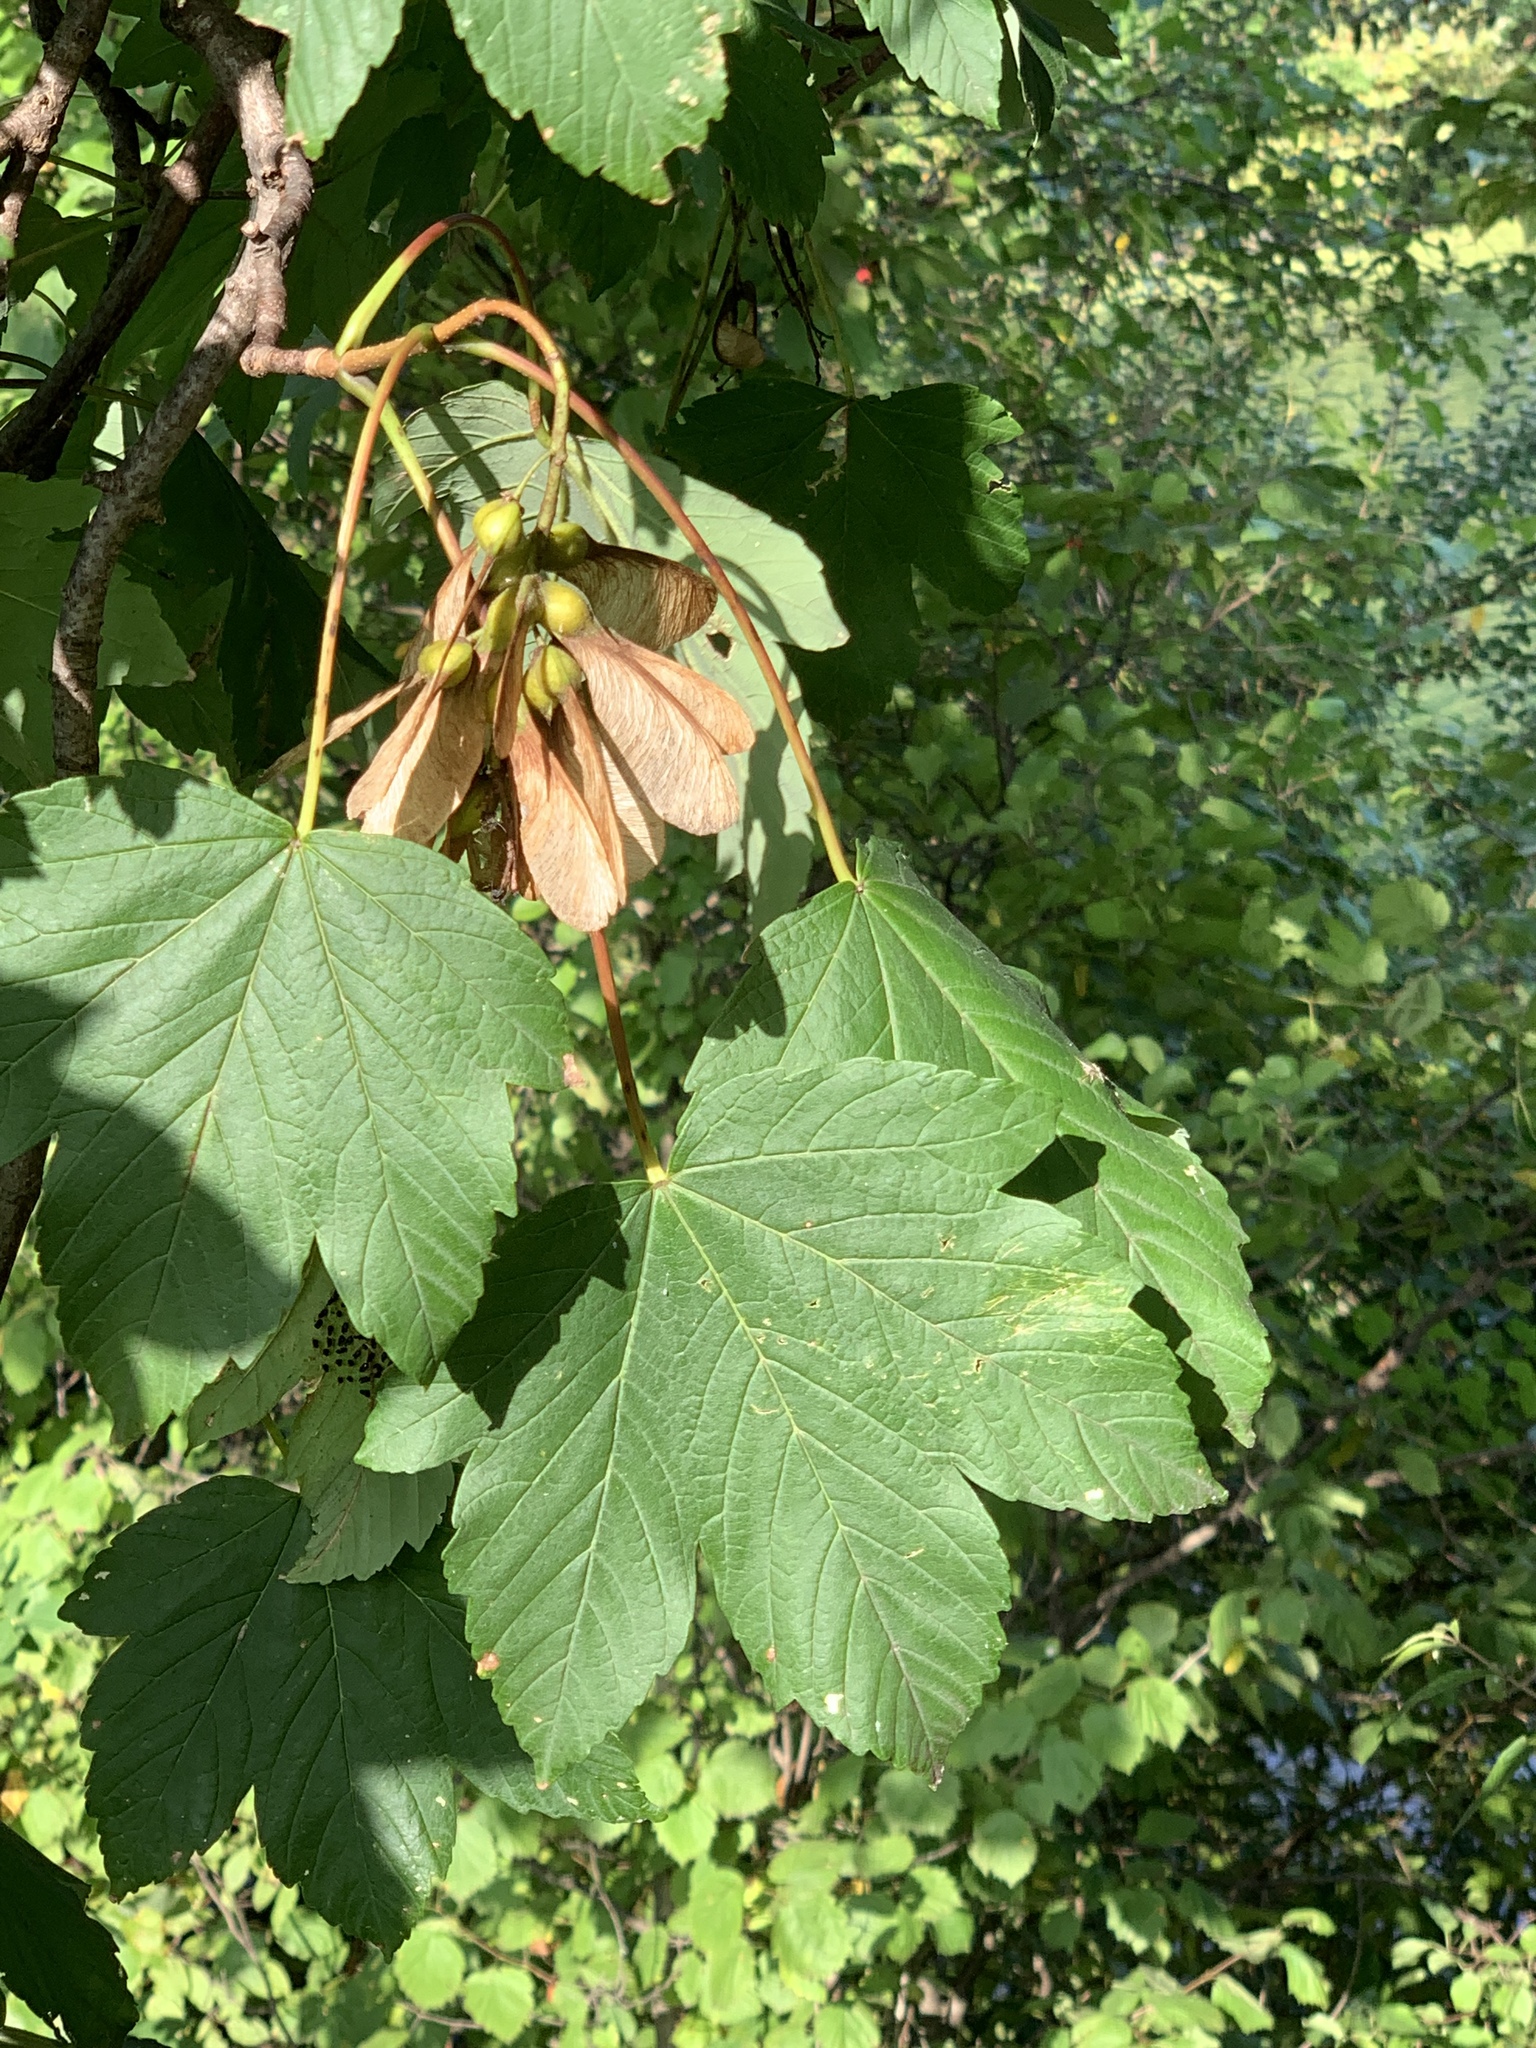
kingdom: Plantae
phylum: Tracheophyta
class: Magnoliopsida
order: Sapindales
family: Sapindaceae
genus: Acer
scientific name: Acer pseudoplatanus
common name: Sycamore
